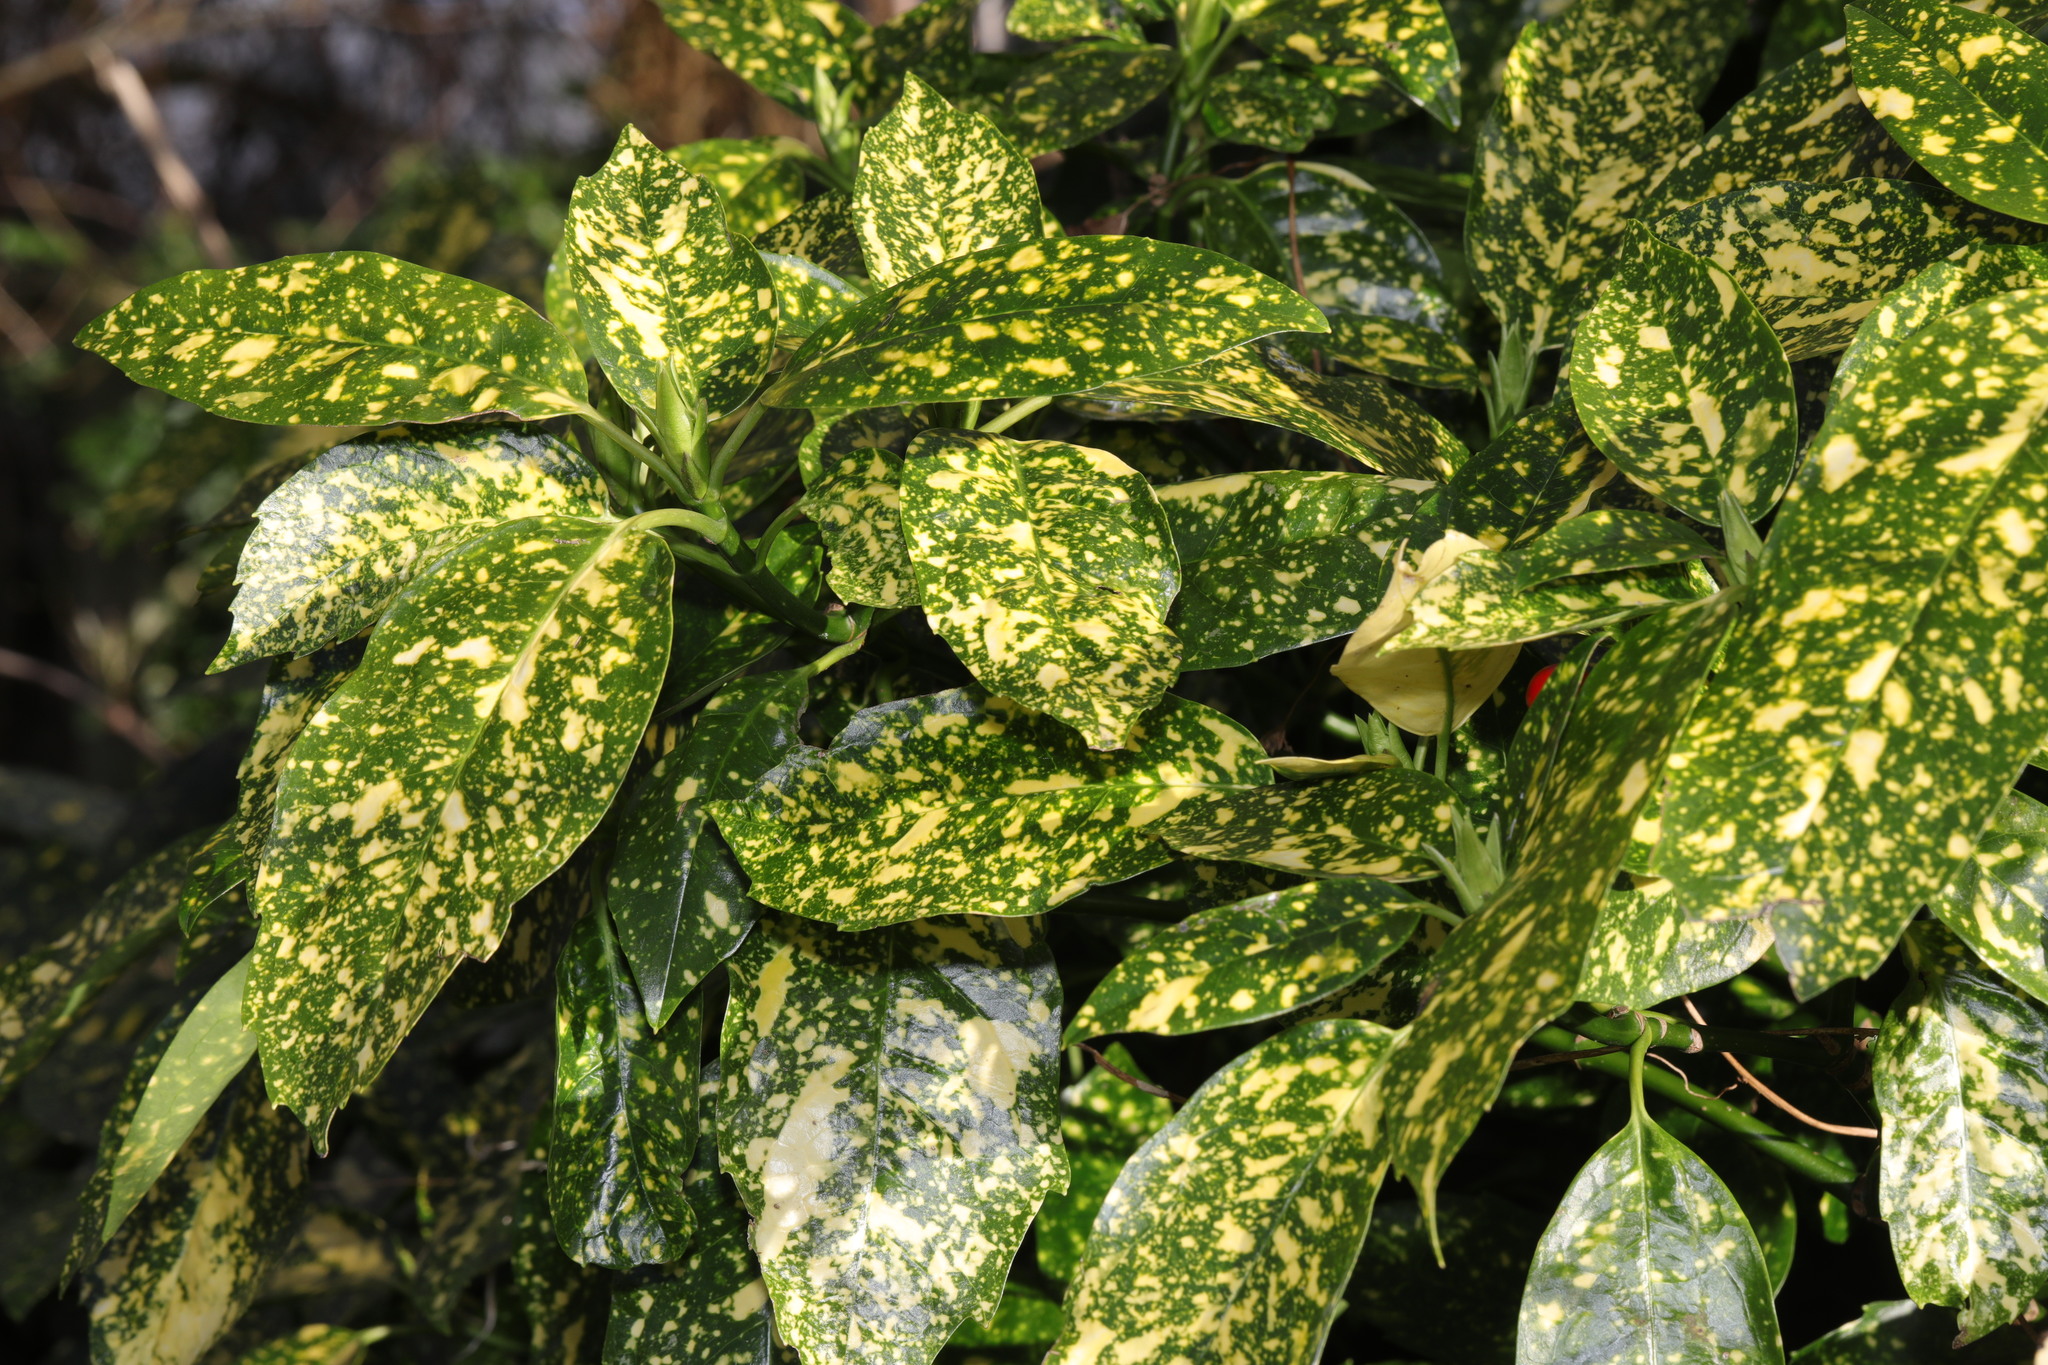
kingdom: Plantae
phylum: Tracheophyta
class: Magnoliopsida
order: Garryales
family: Garryaceae
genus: Aucuba
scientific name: Aucuba japonica
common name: Spotted-laurel
